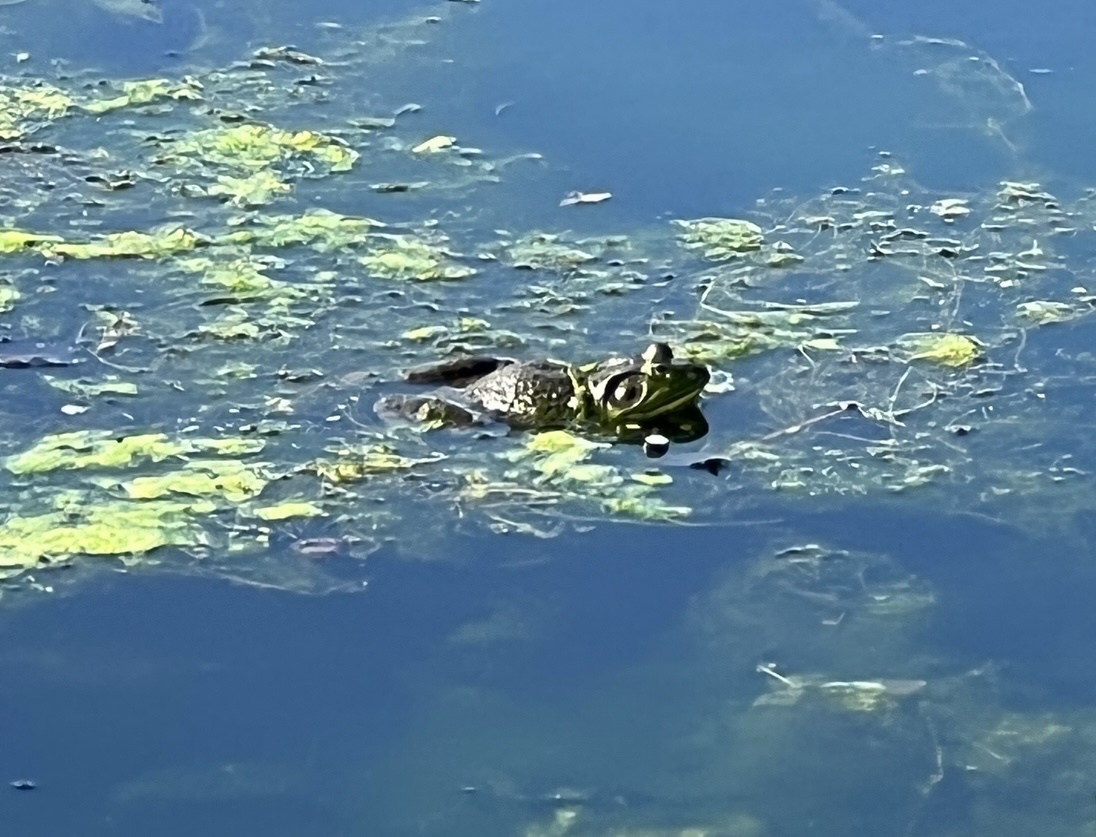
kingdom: Animalia
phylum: Chordata
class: Amphibia
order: Anura
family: Ranidae
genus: Lithobates
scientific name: Lithobates catesbeianus
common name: American bullfrog
